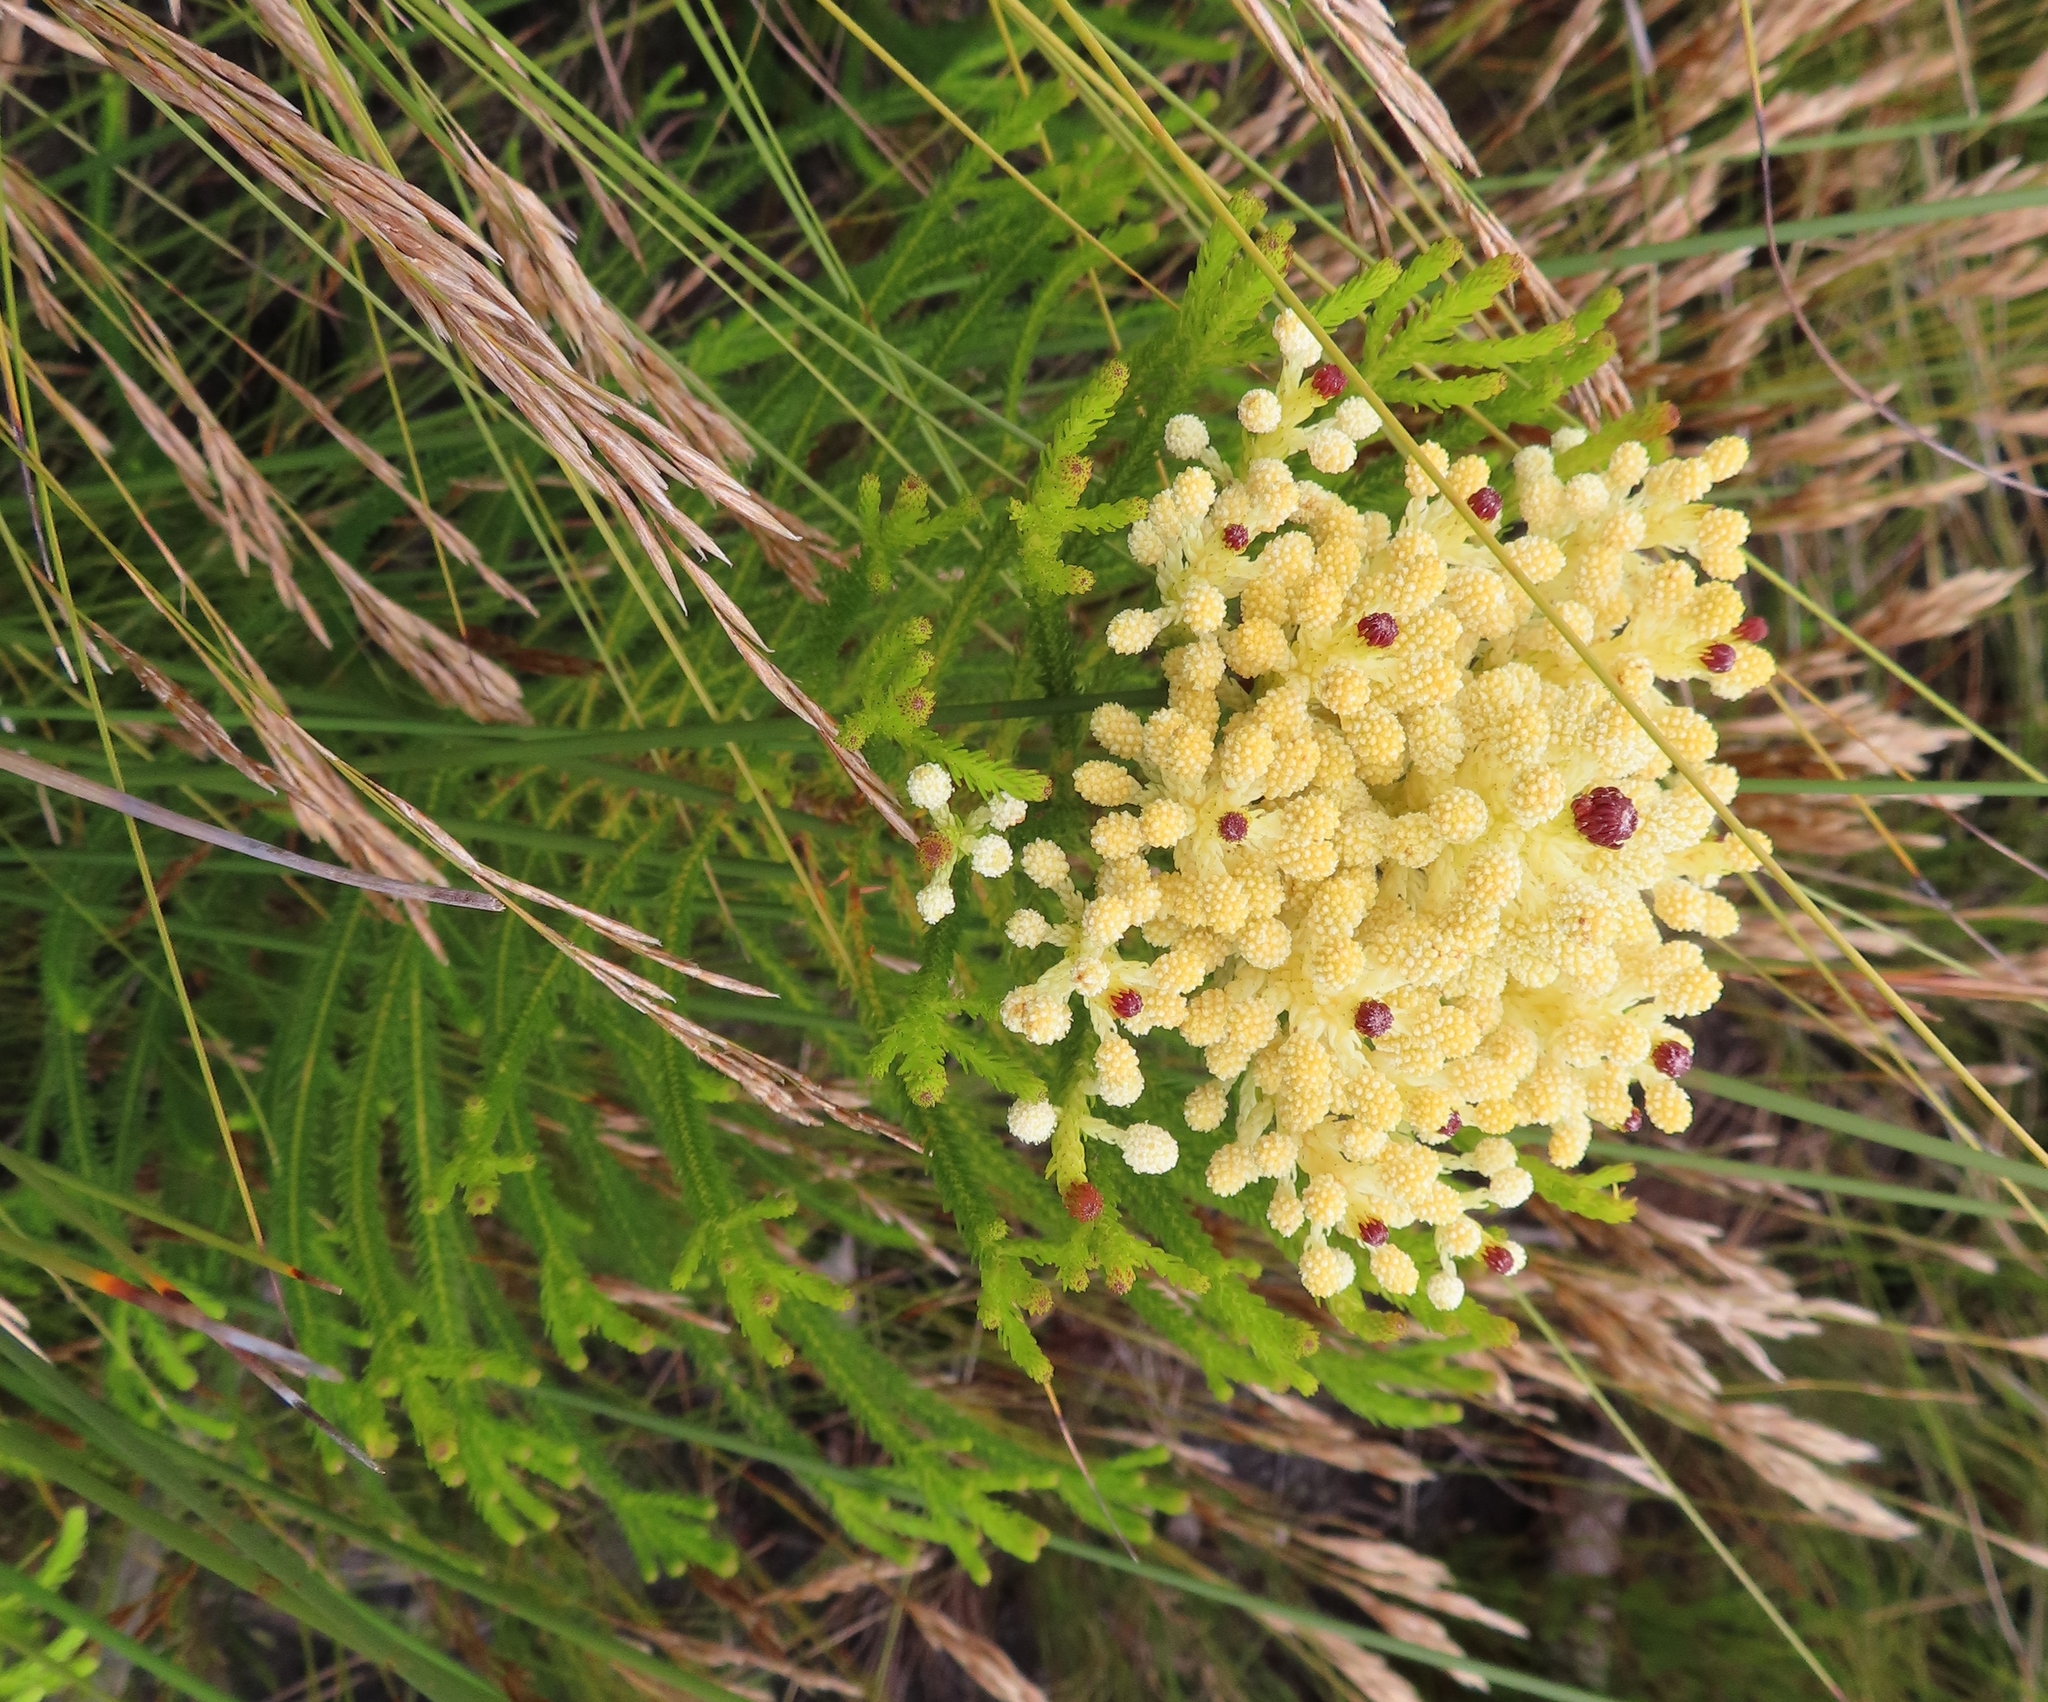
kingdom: Plantae
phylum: Tracheophyta
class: Magnoliopsida
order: Bruniales
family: Bruniaceae
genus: Berzelia
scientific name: Berzelia lanuginosa
